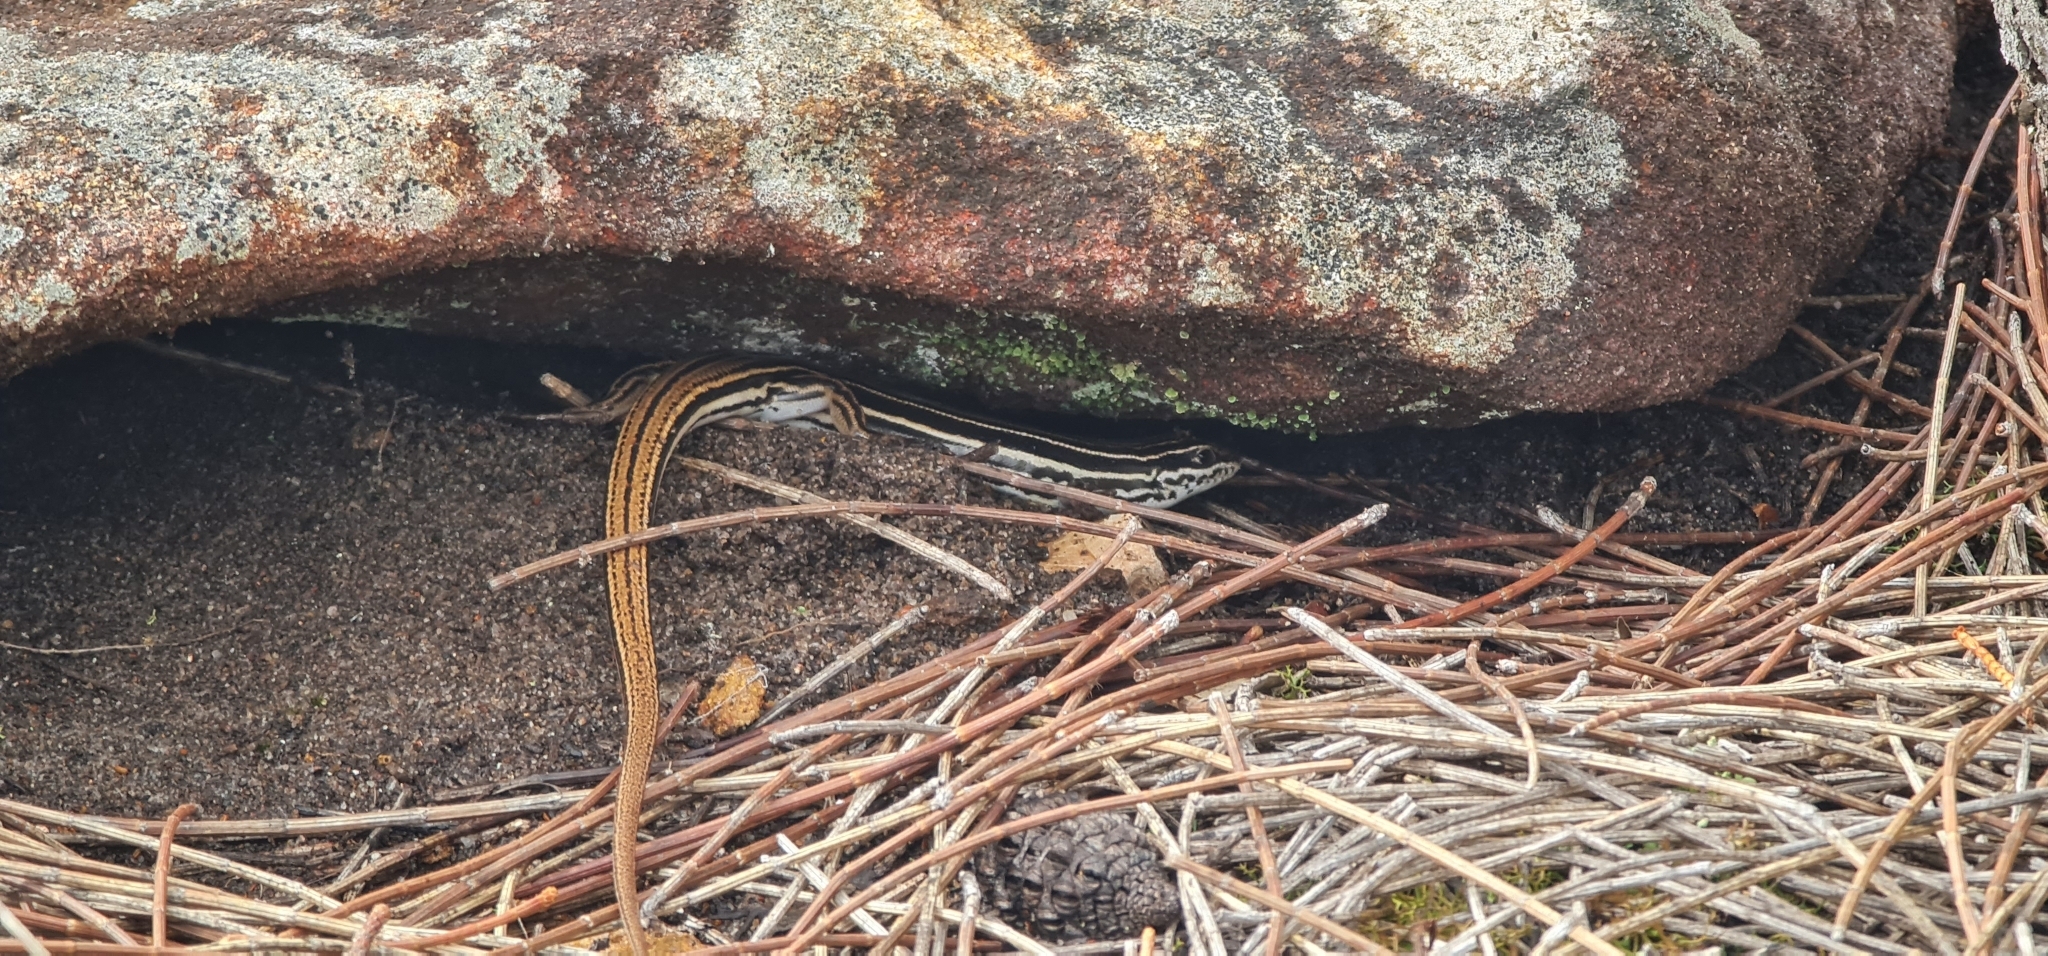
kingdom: Animalia
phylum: Chordata
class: Squamata
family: Scincidae
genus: Ctenotus
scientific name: Ctenotus taeniolatus
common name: Copper-tailed skink
